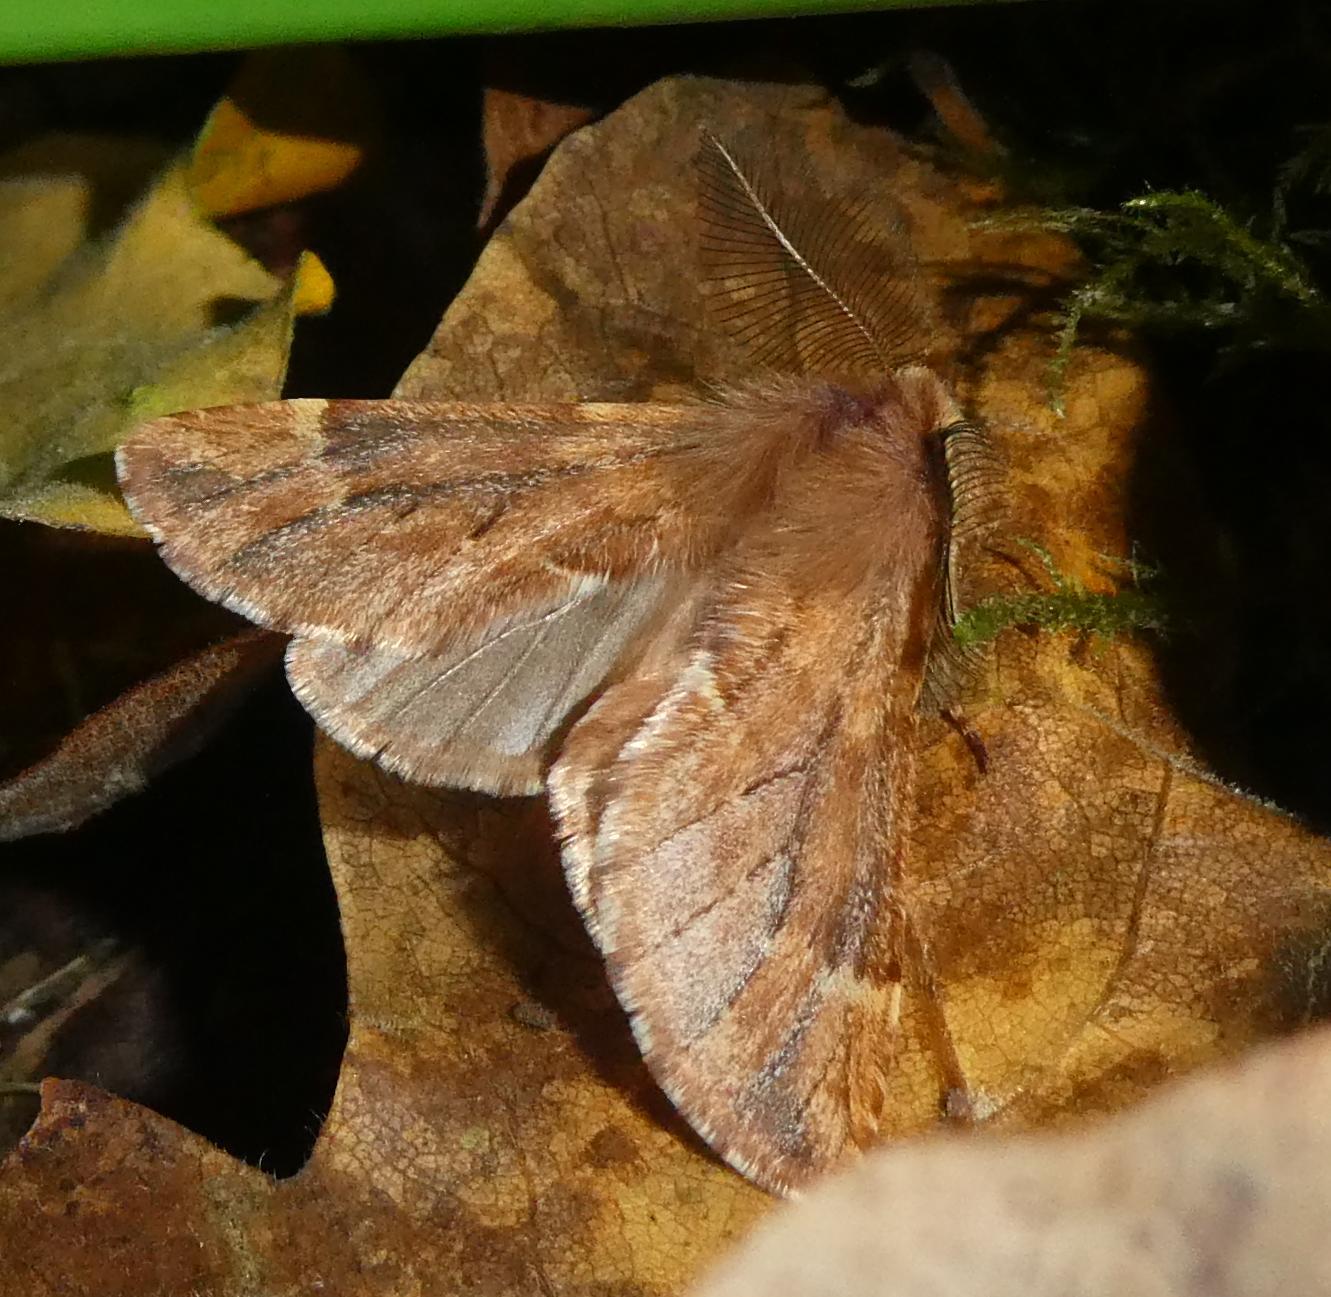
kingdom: Animalia
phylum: Arthropoda
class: Insecta
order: Lepidoptera
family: Notodontidae
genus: Ptilophora
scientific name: Ptilophora plumigera
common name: Plumed prominent
